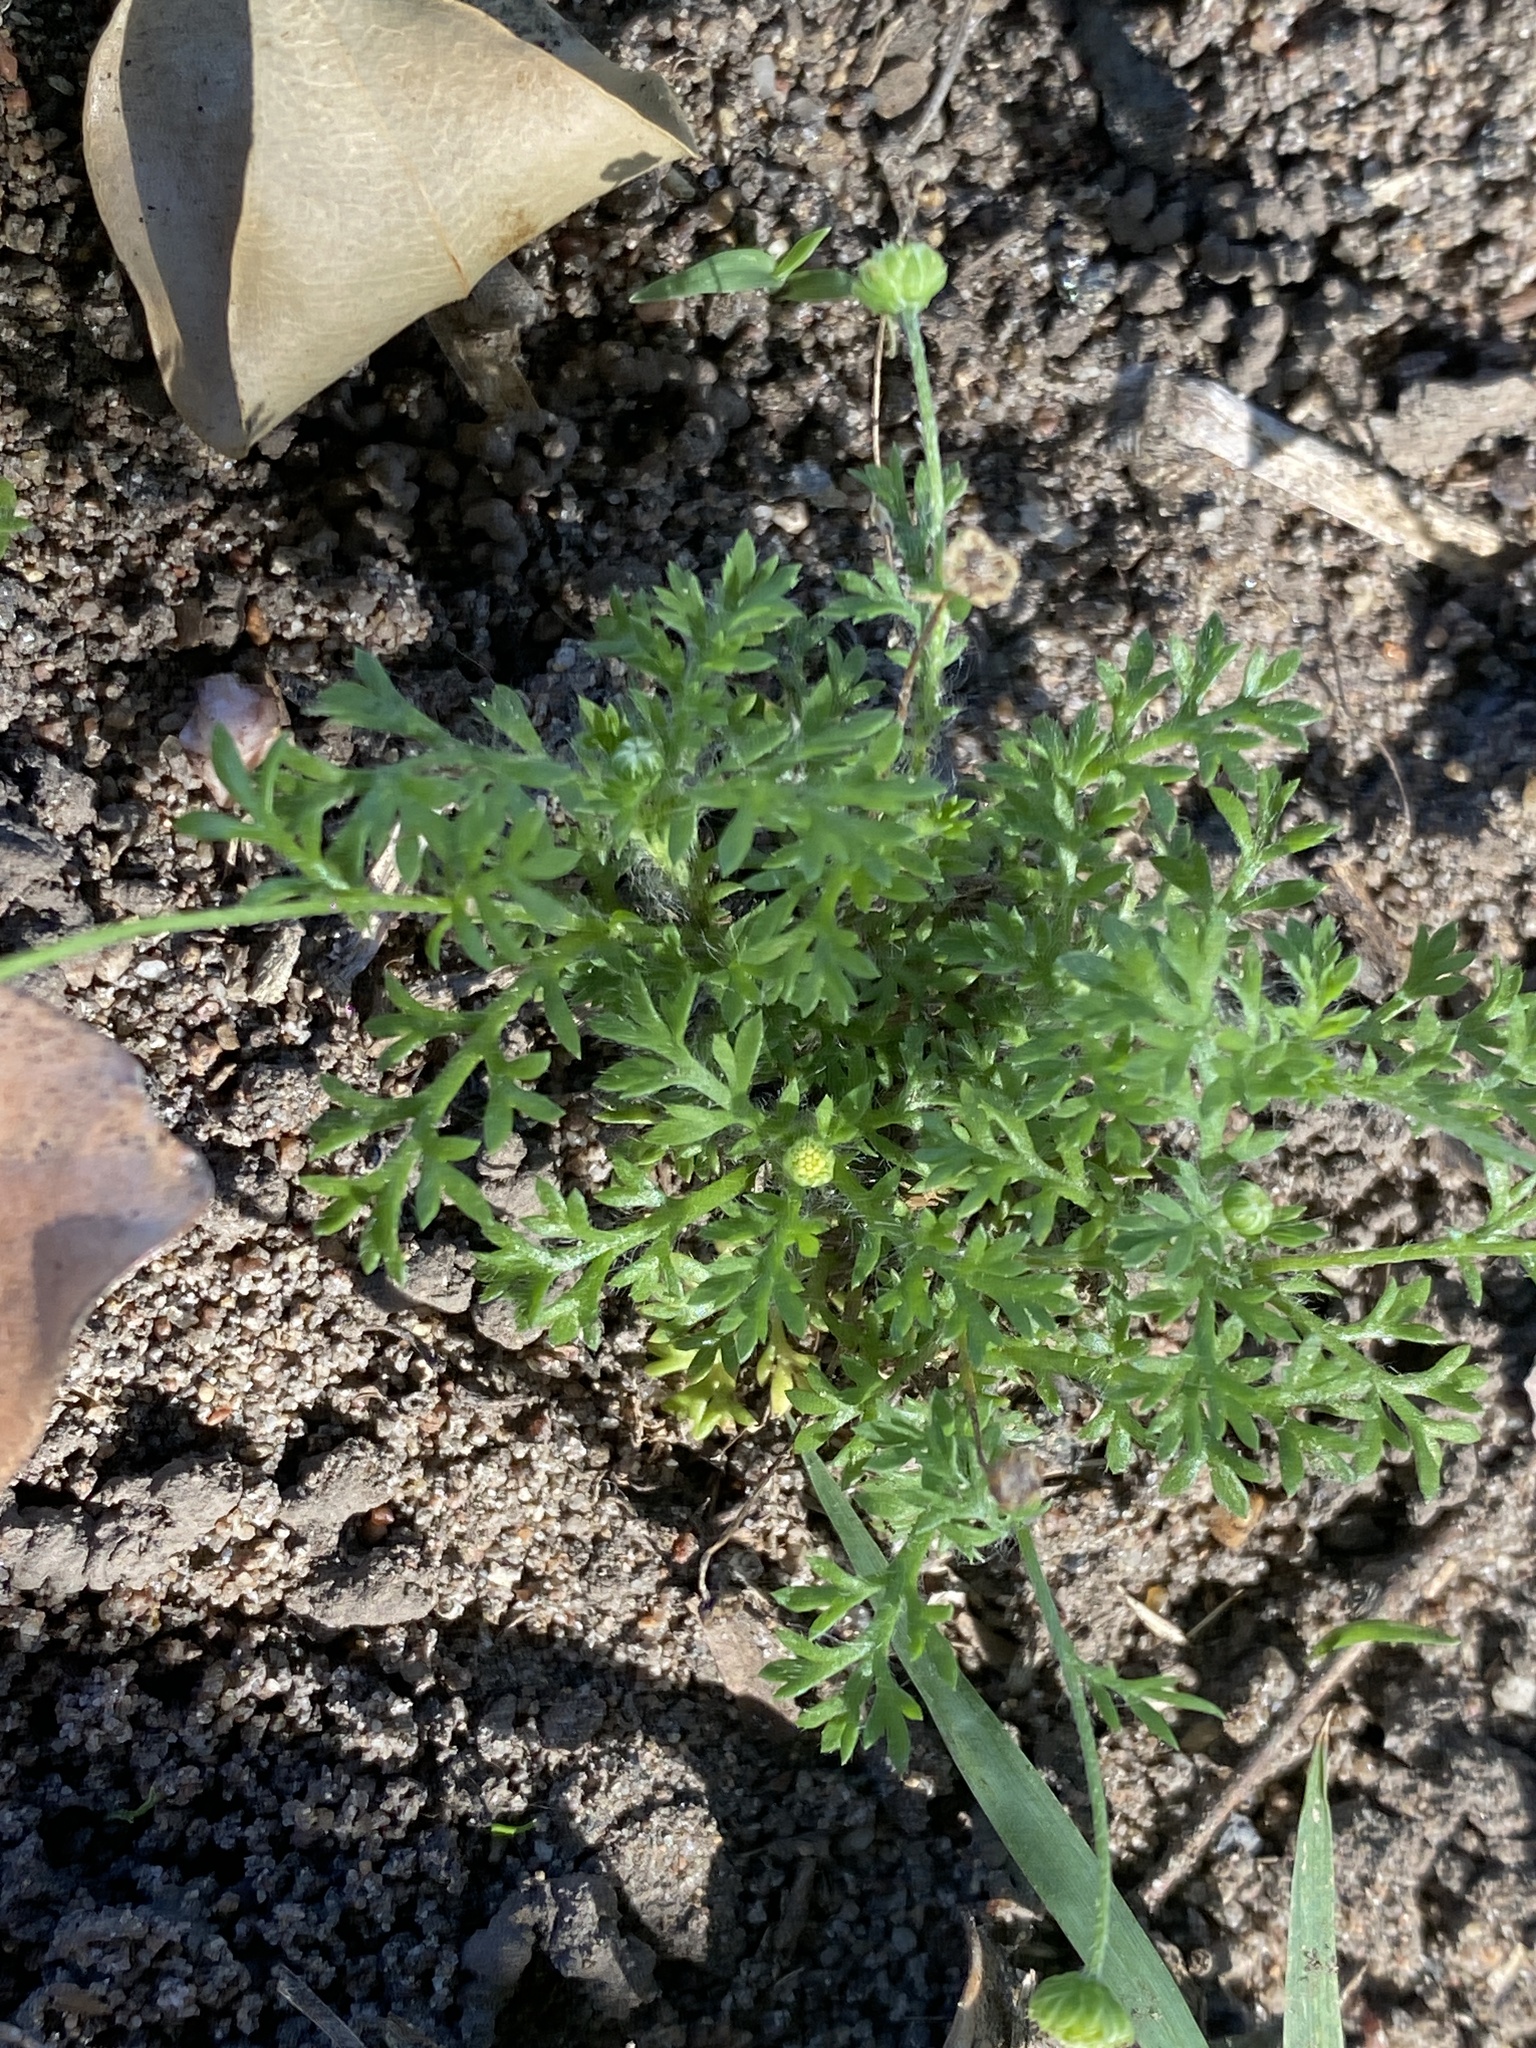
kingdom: Plantae
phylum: Tracheophyta
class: Magnoliopsida
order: Asterales
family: Asteraceae
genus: Cotula
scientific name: Cotula australis
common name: Australian waterbuttons
